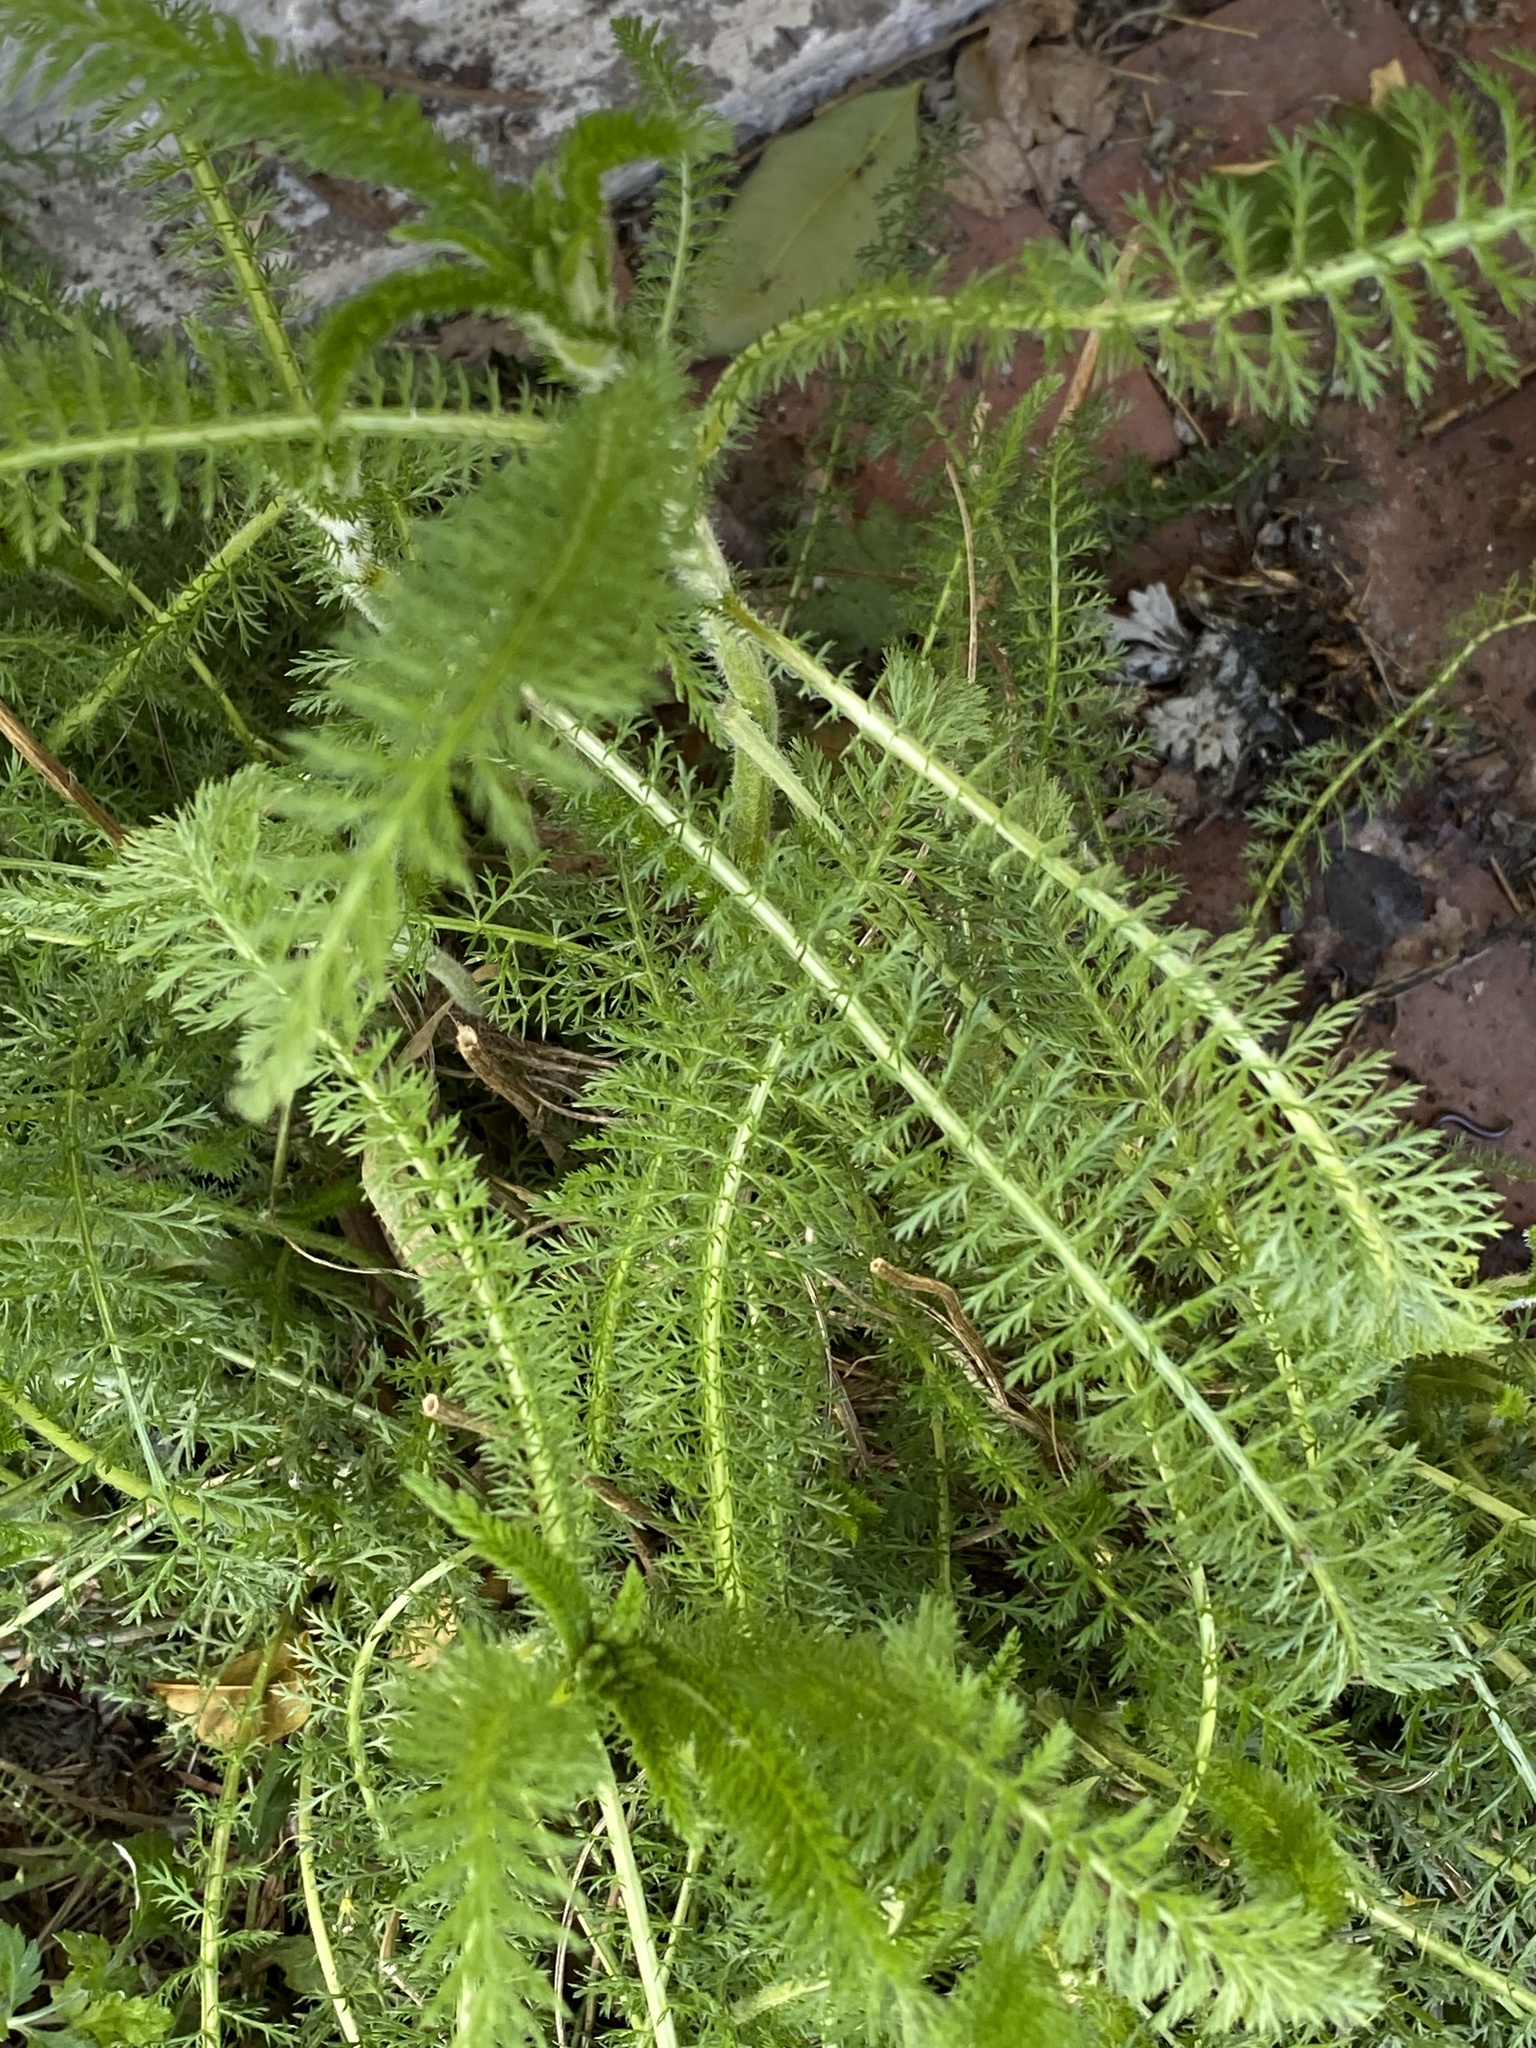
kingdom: Plantae
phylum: Tracheophyta
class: Magnoliopsida
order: Asterales
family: Asteraceae
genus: Achillea
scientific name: Achillea millefolium
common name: Yarrow
